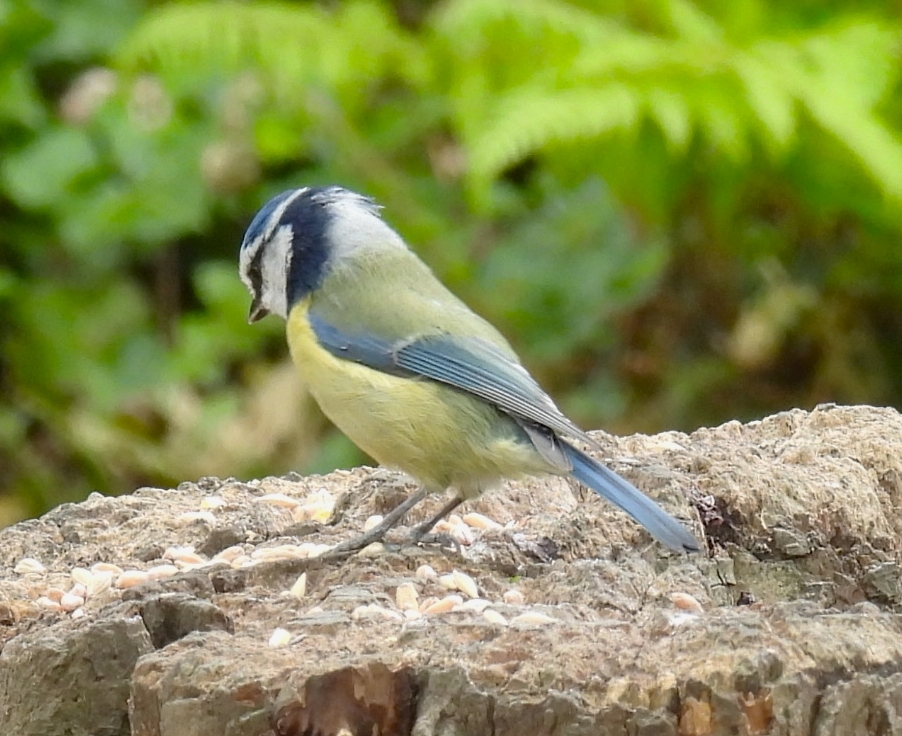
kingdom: Animalia
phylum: Chordata
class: Aves
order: Passeriformes
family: Paridae
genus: Cyanistes
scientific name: Cyanistes caeruleus
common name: Eurasian blue tit
